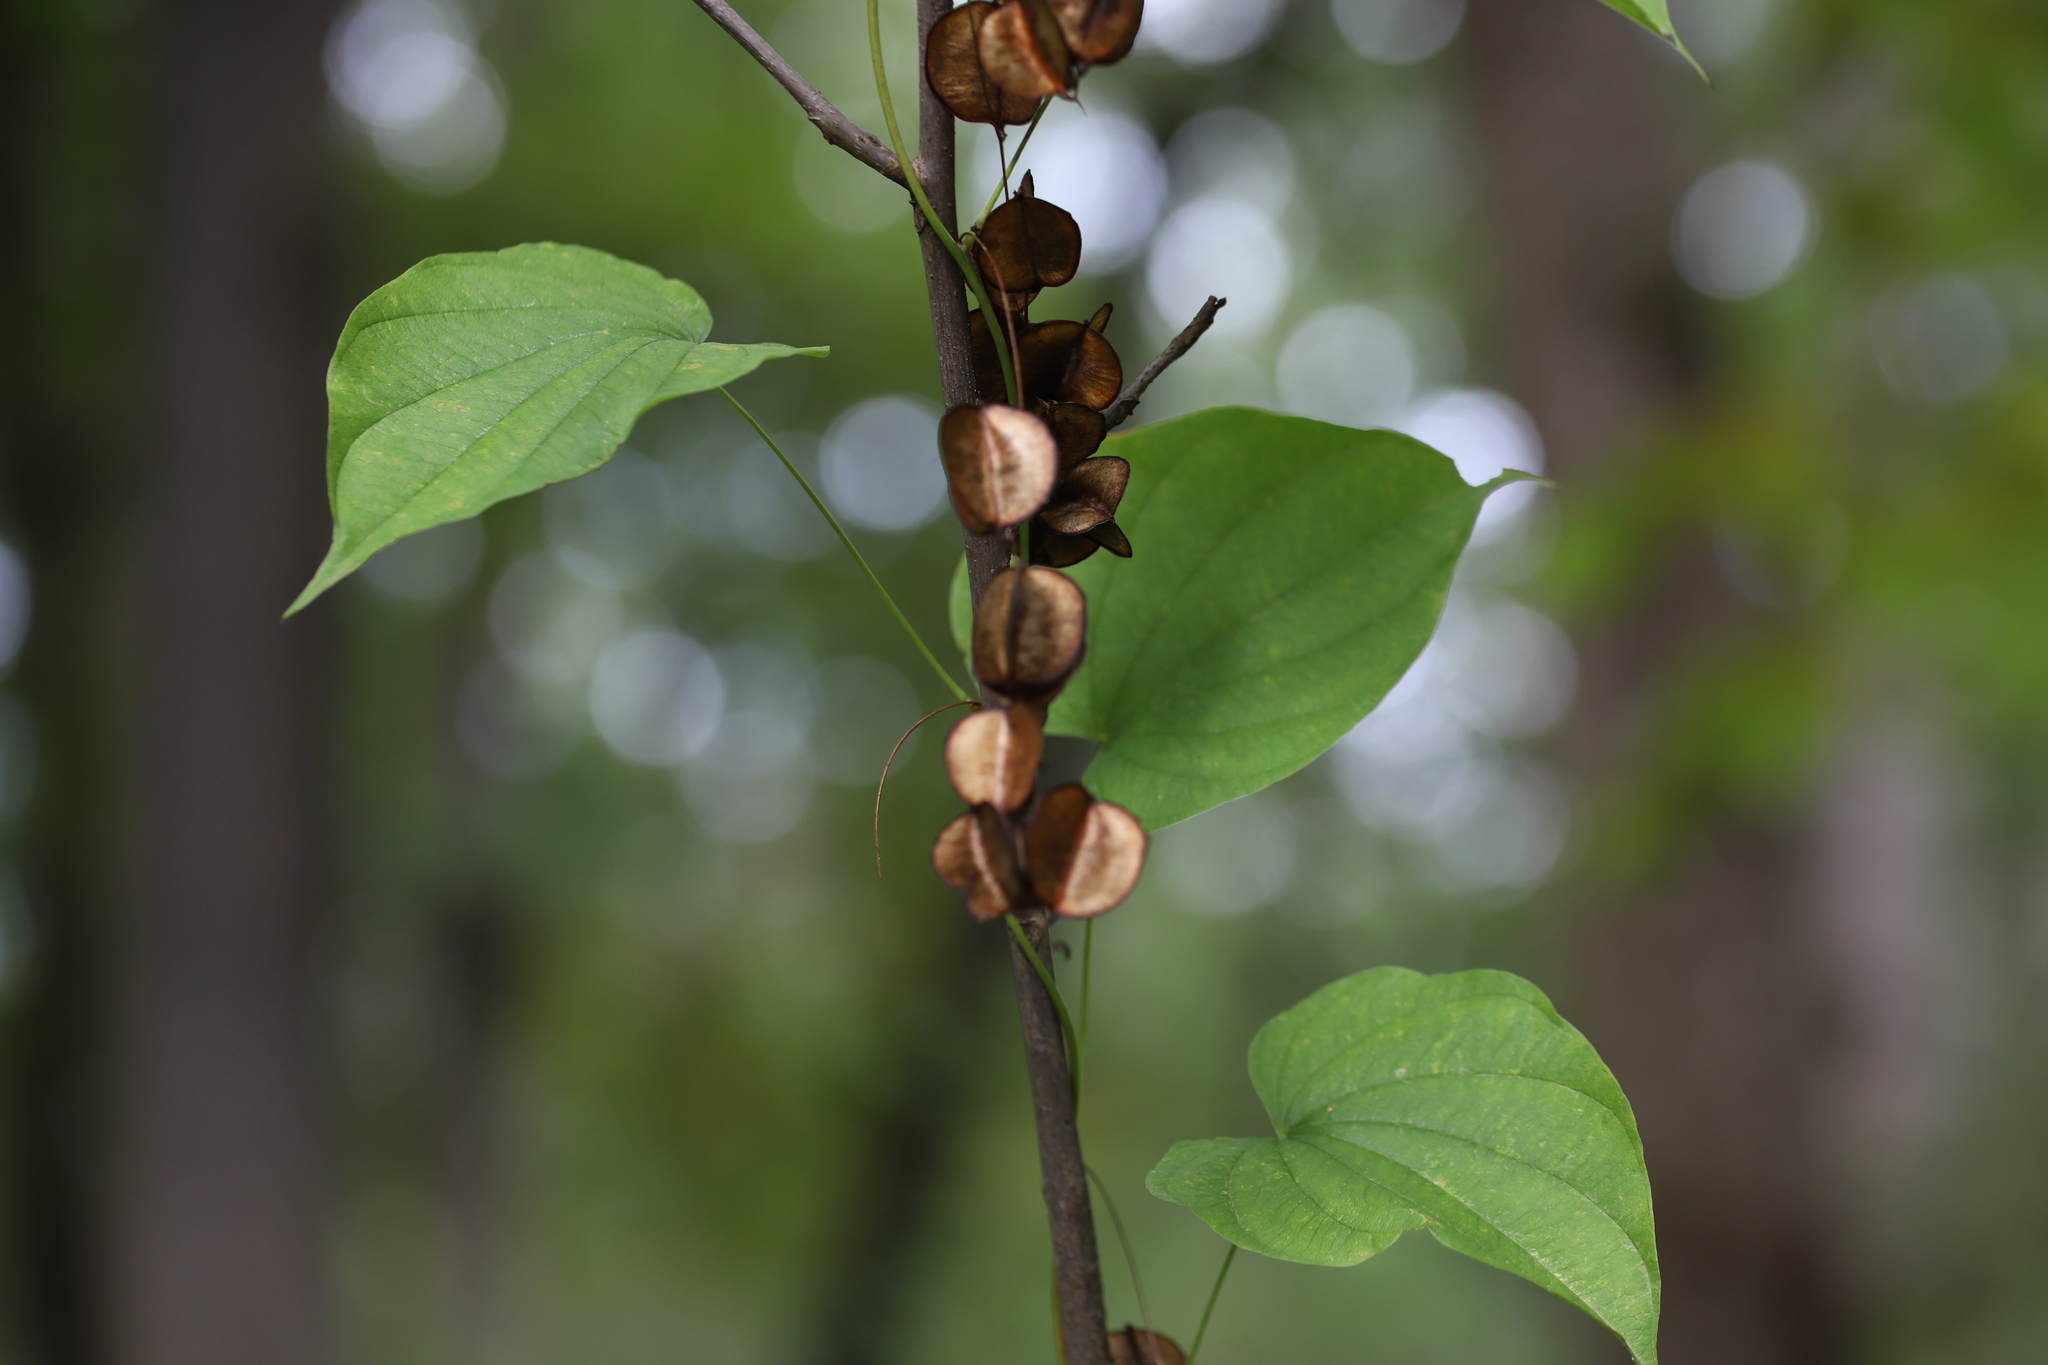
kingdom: Plantae
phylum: Tracheophyta
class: Liliopsida
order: Dioscoreales
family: Dioscoreaceae
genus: Dioscorea
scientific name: Dioscorea villosa
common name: Wild yam
